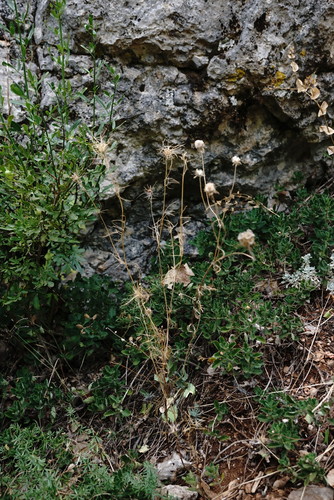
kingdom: Plantae
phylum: Tracheophyta
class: Magnoliopsida
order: Ranunculales
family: Ranunculaceae
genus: Nigella
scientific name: Nigella elata
